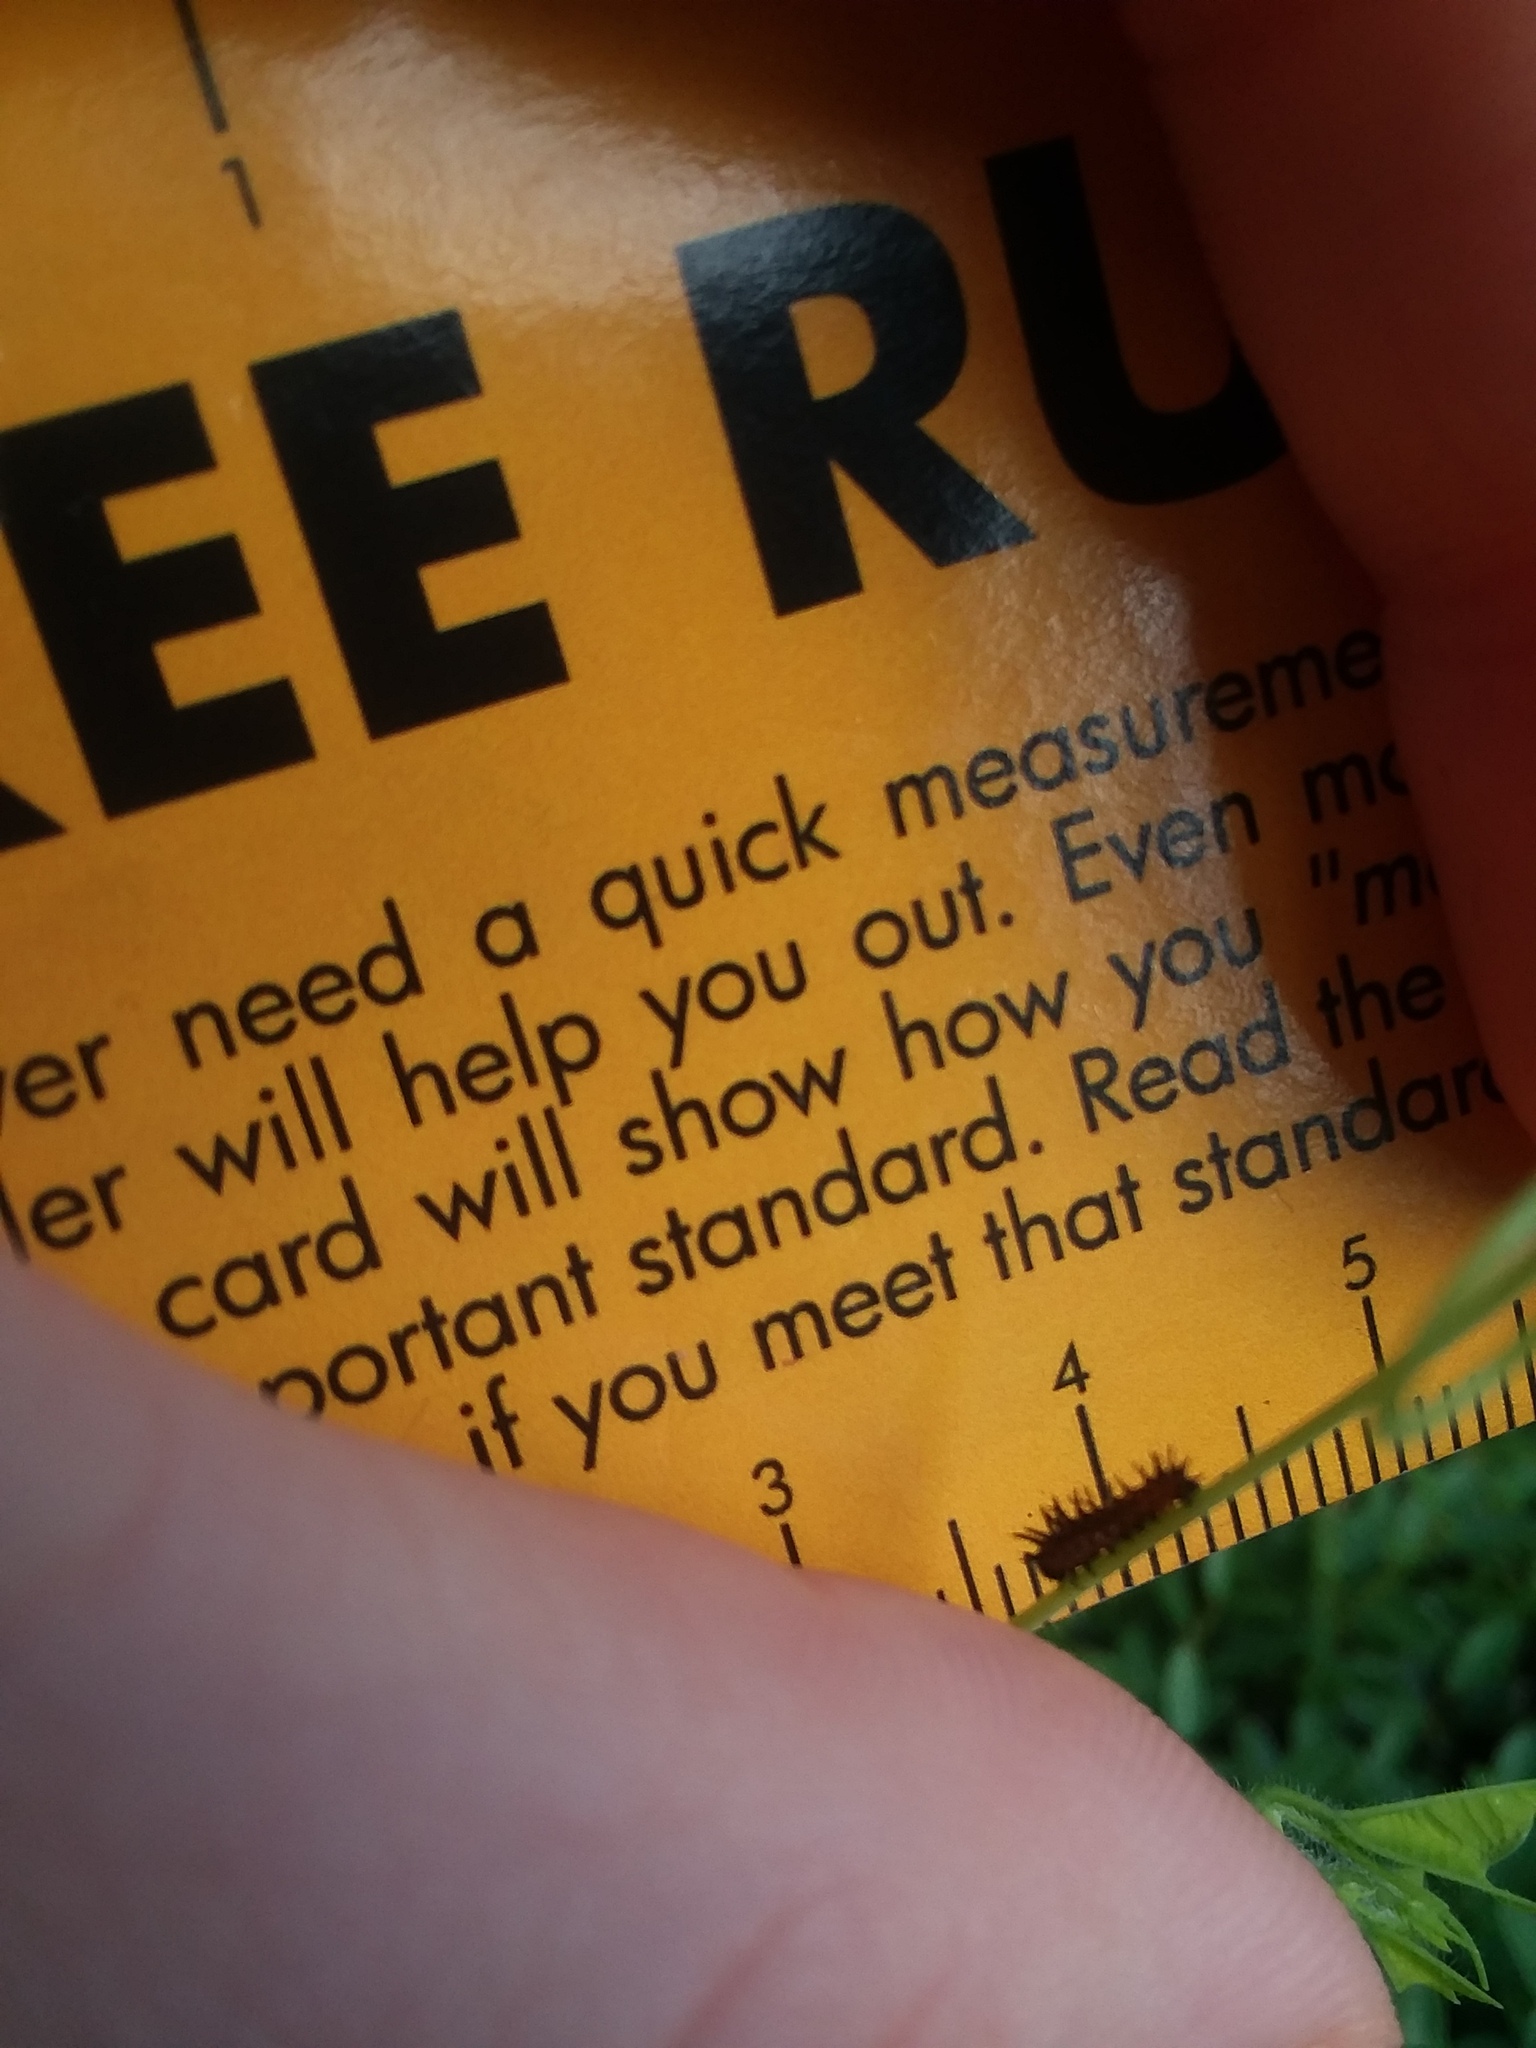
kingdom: Animalia
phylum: Arthropoda
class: Insecta
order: Lepidoptera
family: Nymphalidae
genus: Dione
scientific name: Dione vanillae
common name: Gulf fritillary
